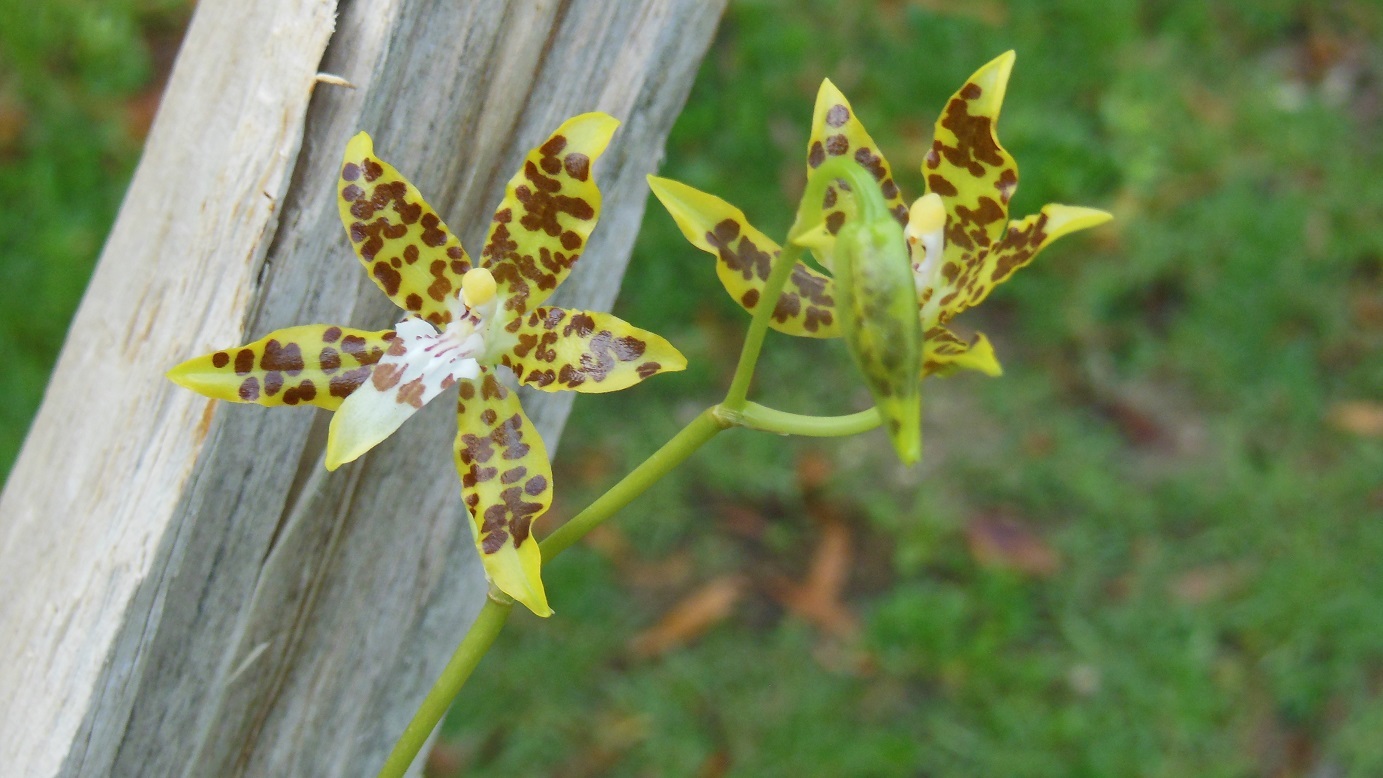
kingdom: Plantae
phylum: Tracheophyta
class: Liliopsida
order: Asparagales
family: Orchidaceae
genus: Oncidium
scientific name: Oncidium maculatum
